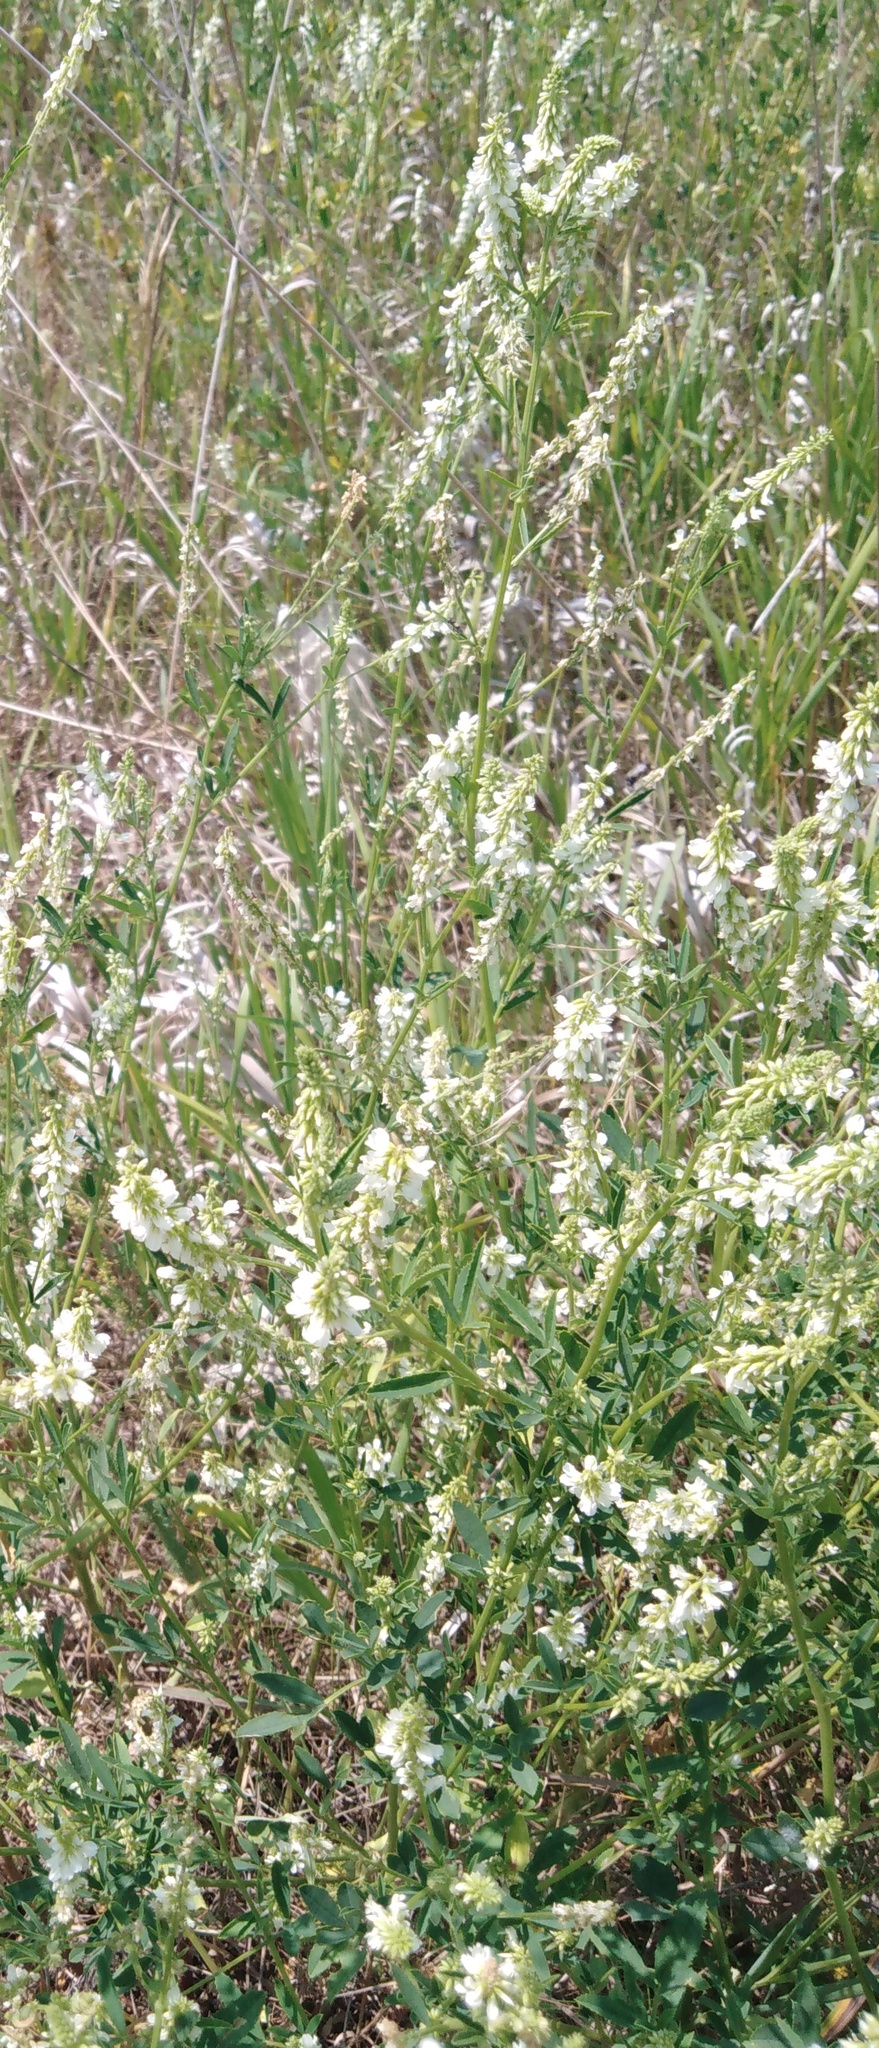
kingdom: Plantae
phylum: Tracheophyta
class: Magnoliopsida
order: Fabales
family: Fabaceae
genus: Melilotus
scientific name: Melilotus albus
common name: White melilot
